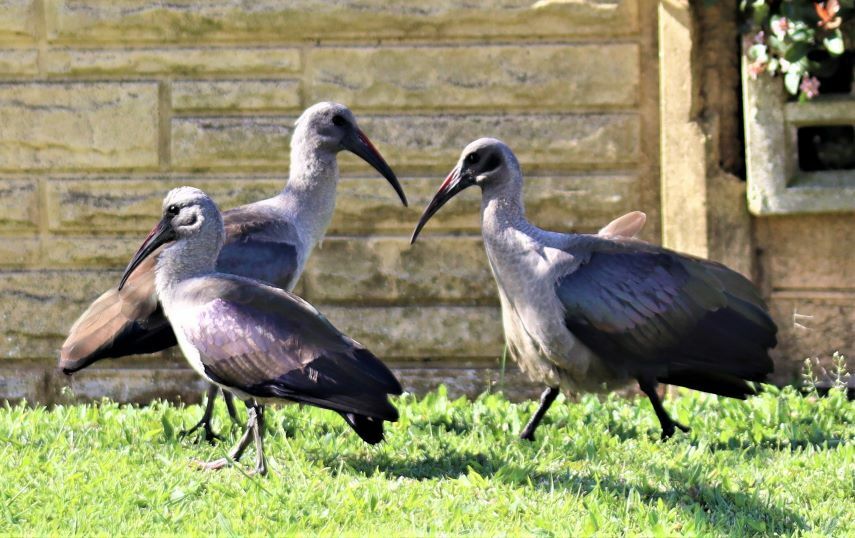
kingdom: Animalia
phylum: Chordata
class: Aves
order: Pelecaniformes
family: Threskiornithidae
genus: Bostrychia
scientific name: Bostrychia hagedash
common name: Hadada ibis
